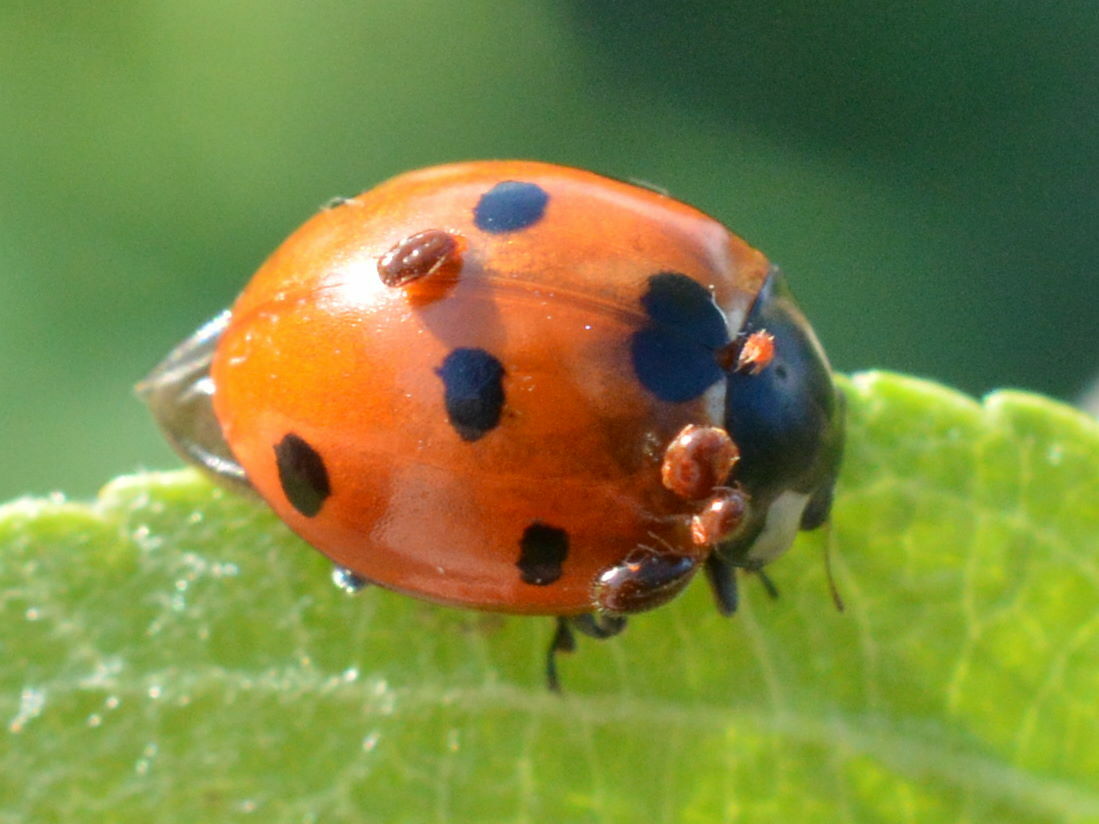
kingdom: Animalia
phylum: Arthropoda
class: Insecta
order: Coleoptera
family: Coccinellidae
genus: Coccinella
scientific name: Coccinella septempunctata
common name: Sevenspotted lady beetle
